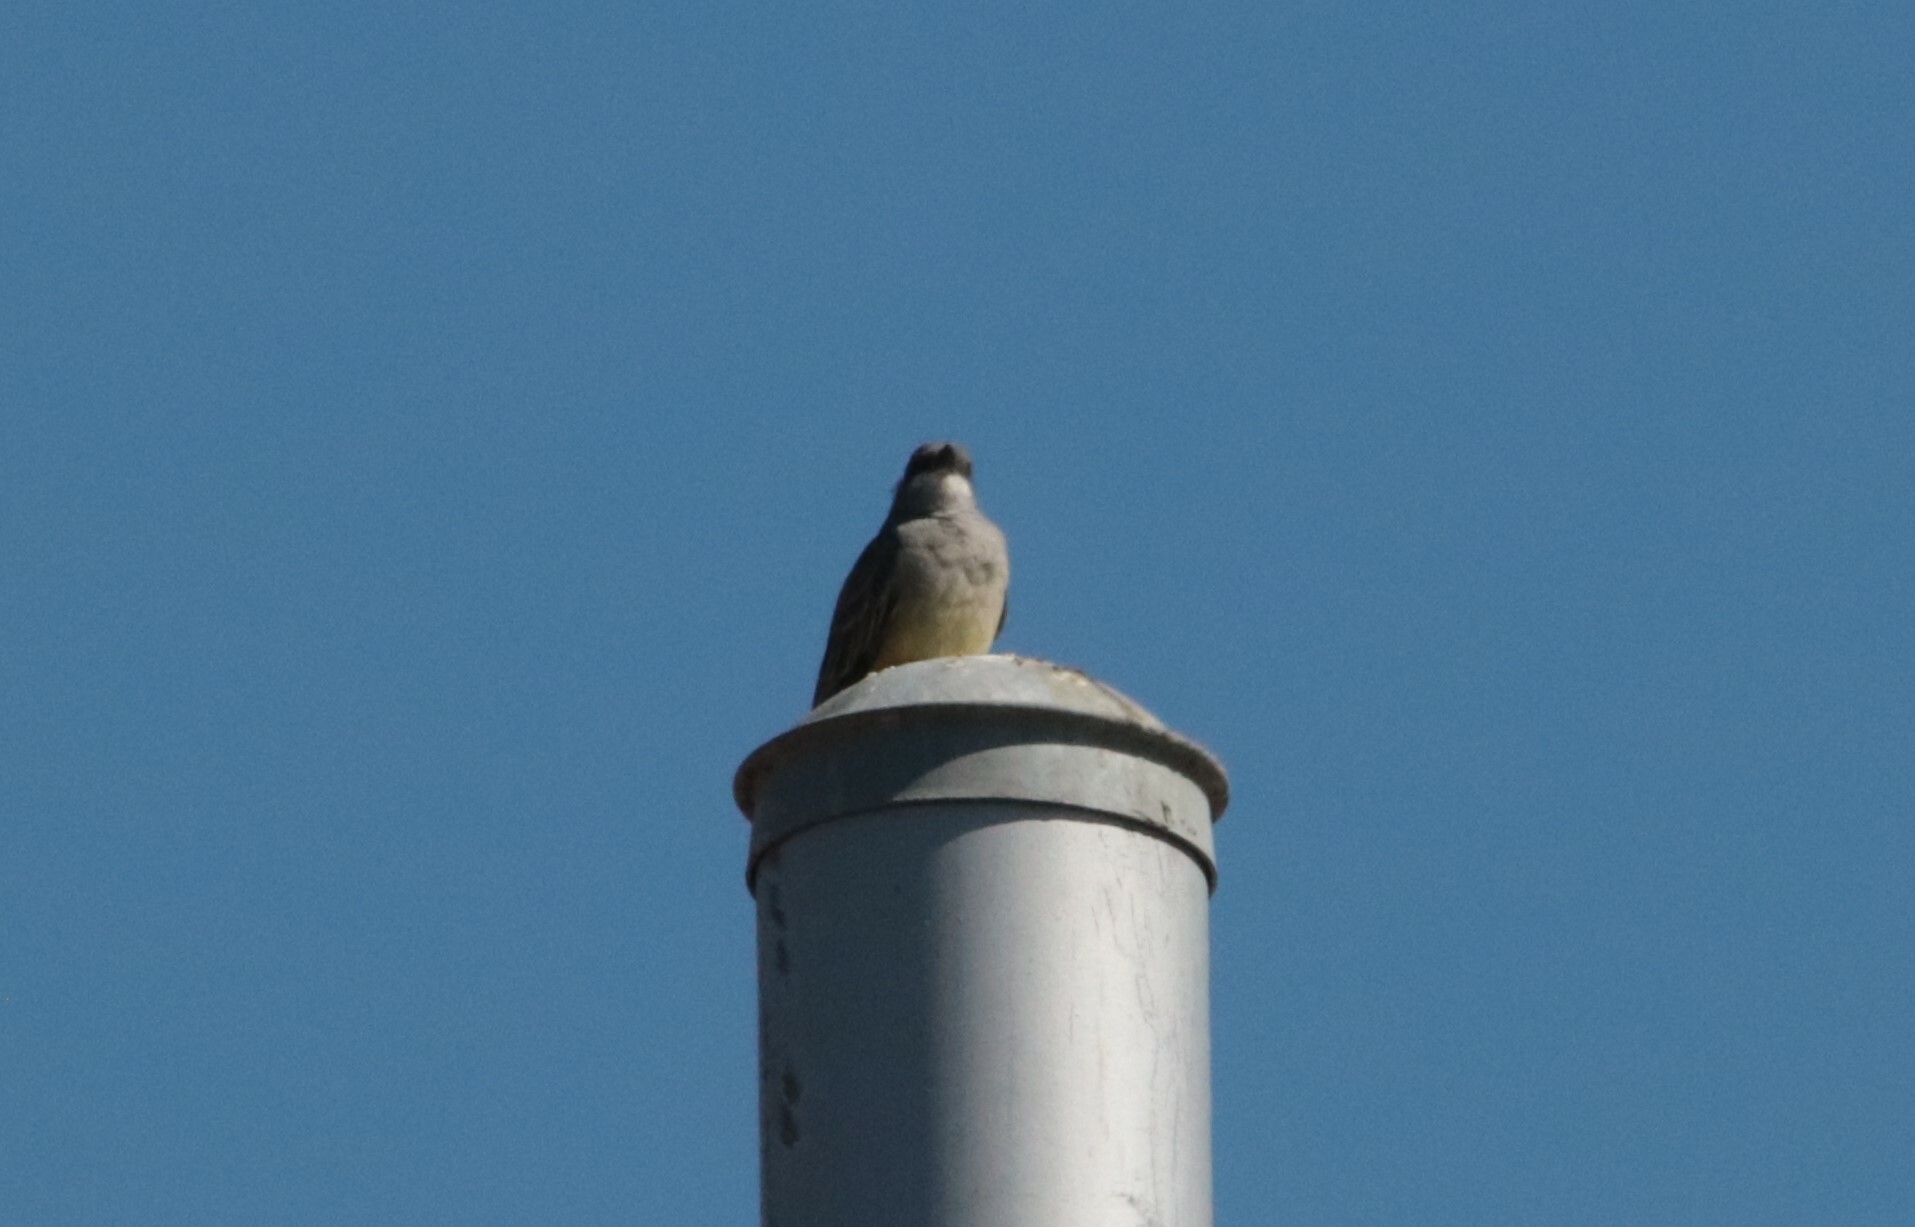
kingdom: Animalia
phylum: Chordata
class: Aves
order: Passeriformes
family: Tyrannidae
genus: Tyrannus
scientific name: Tyrannus vociferans
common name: Cassin's kingbird
